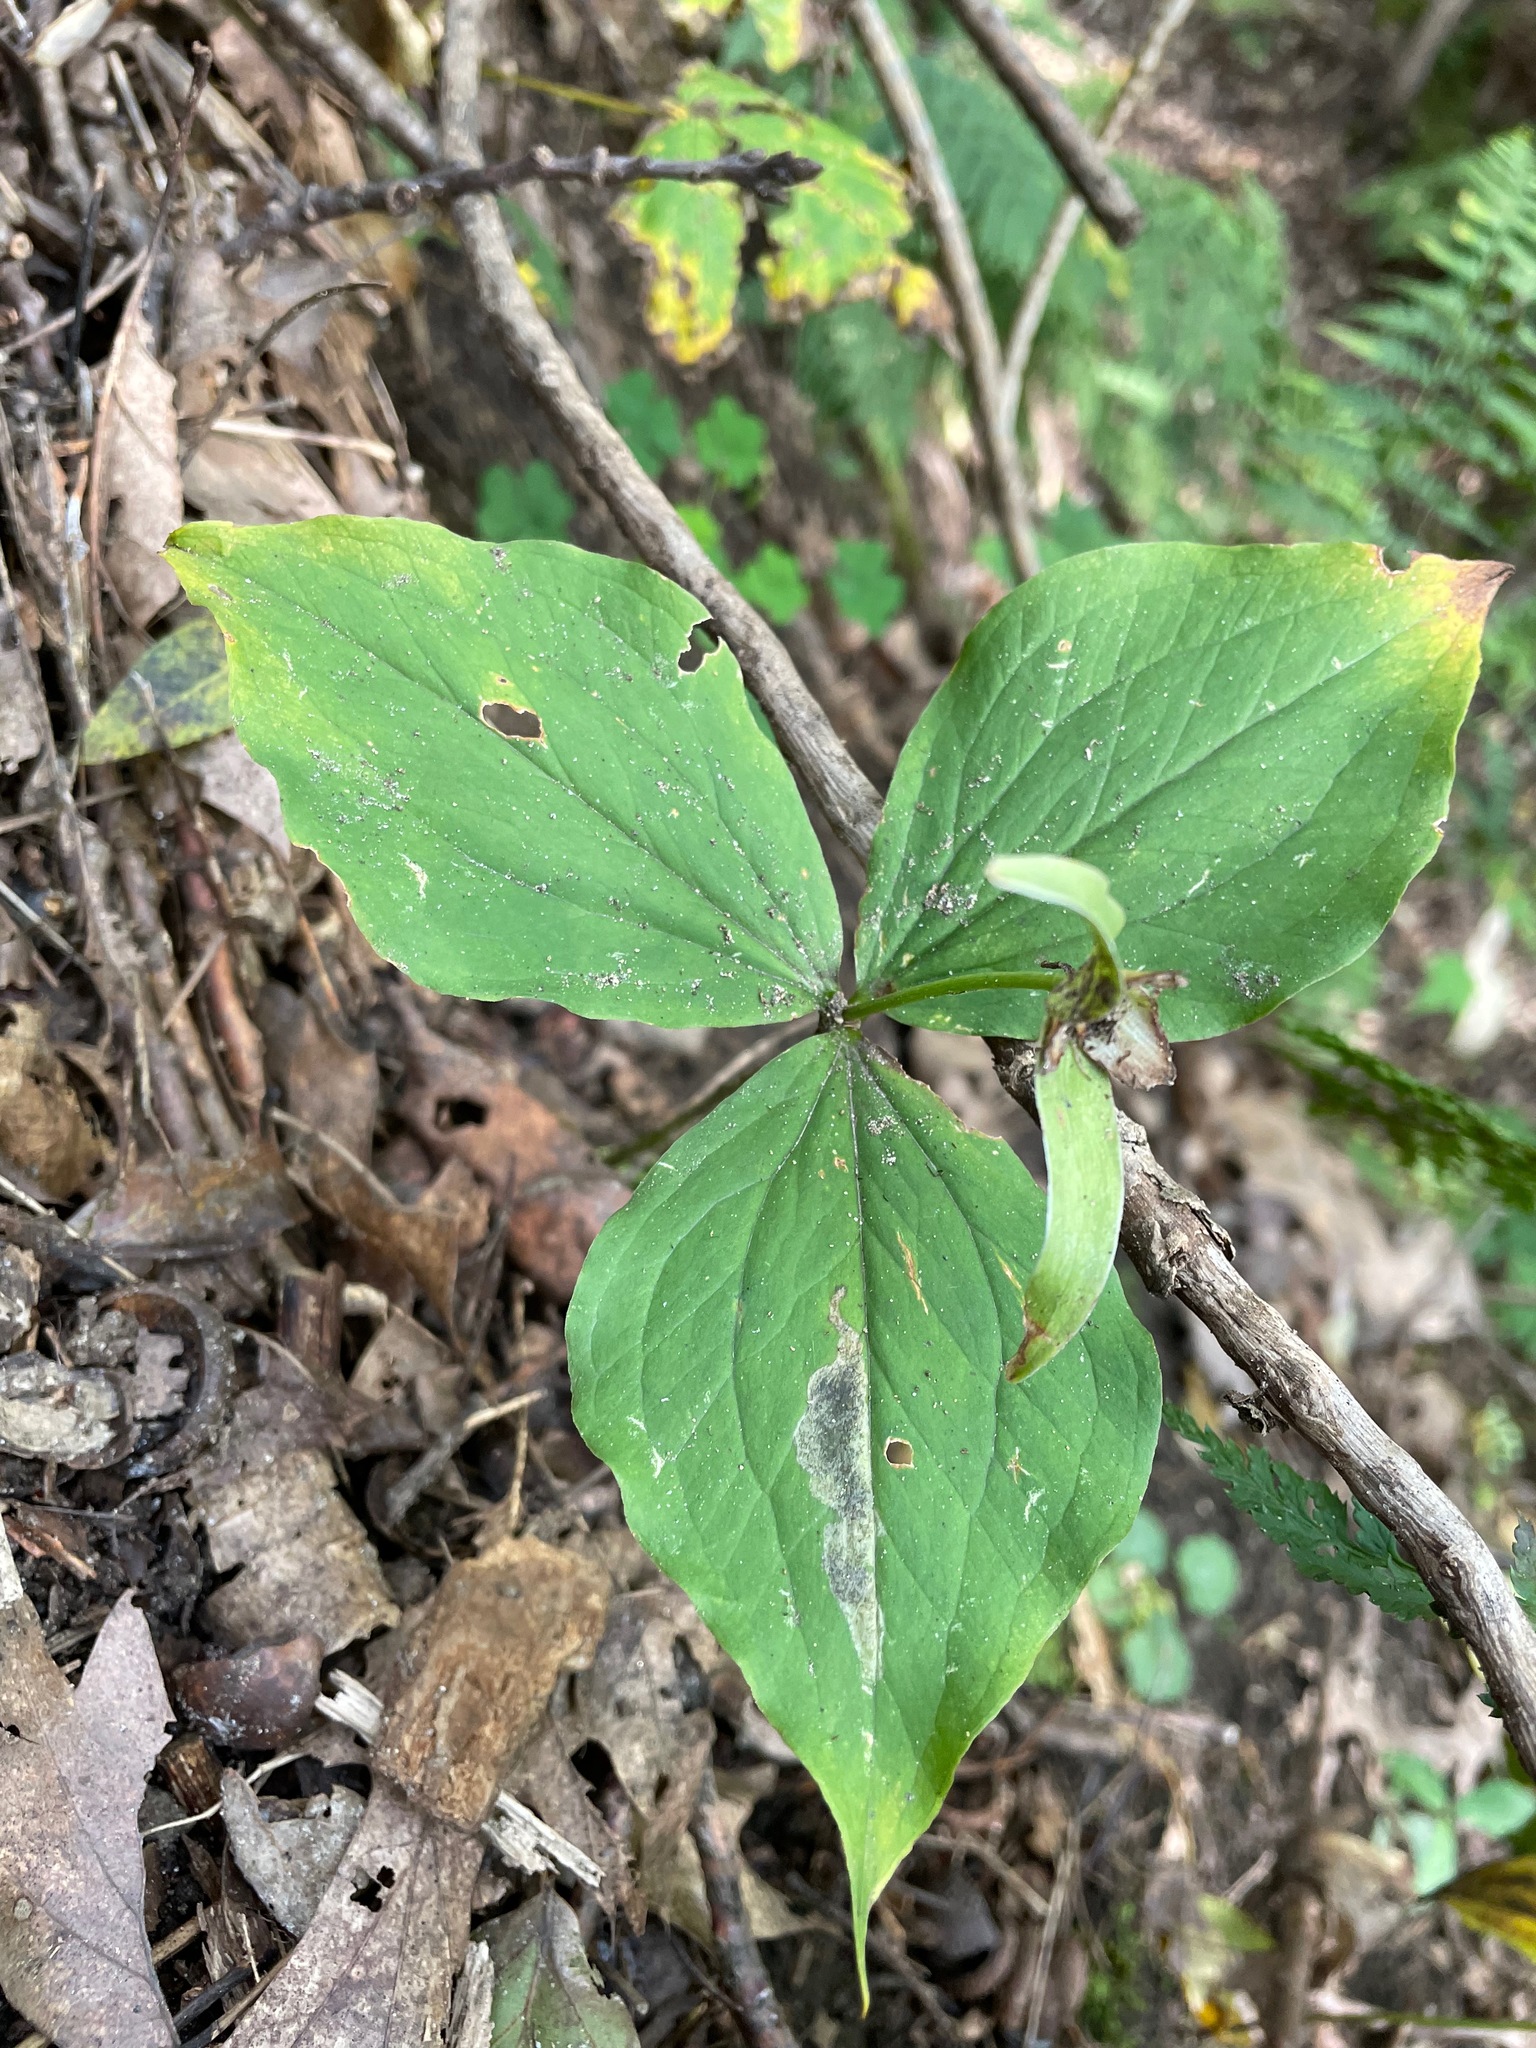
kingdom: Plantae
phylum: Tracheophyta
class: Liliopsida
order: Liliales
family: Melanthiaceae
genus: Trillium
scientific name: Trillium grandiflorum
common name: Great white trillium
